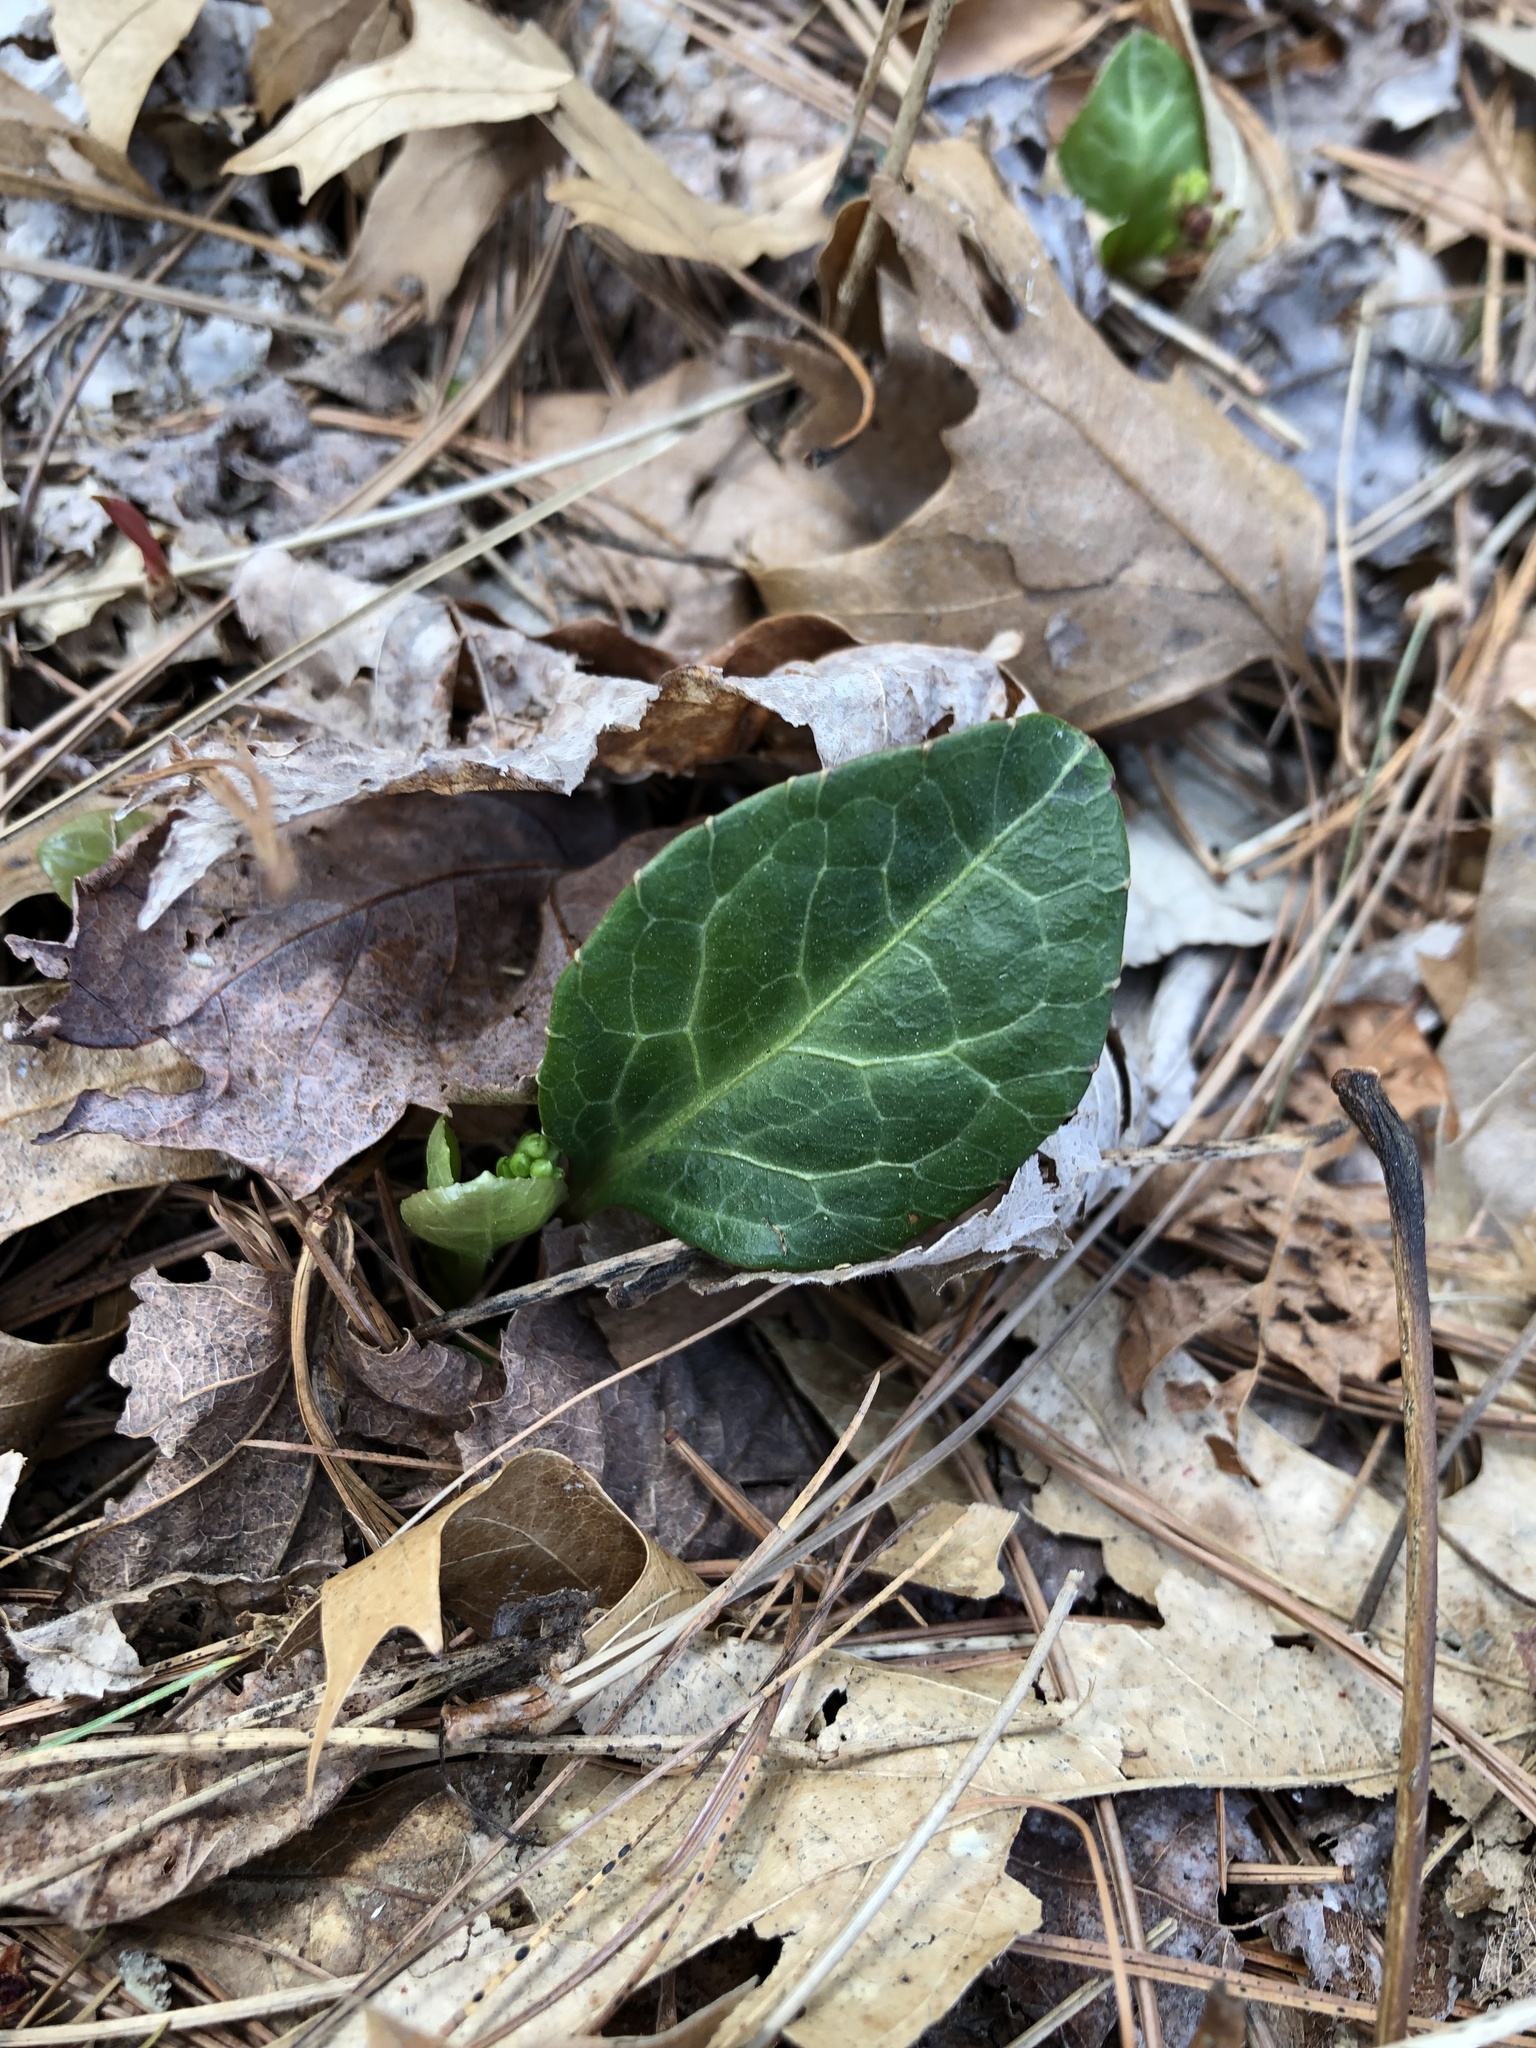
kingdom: Plantae
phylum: Tracheophyta
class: Magnoliopsida
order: Ericales
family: Ericaceae
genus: Pyrola
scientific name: Pyrola americana
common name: American wintergreen
